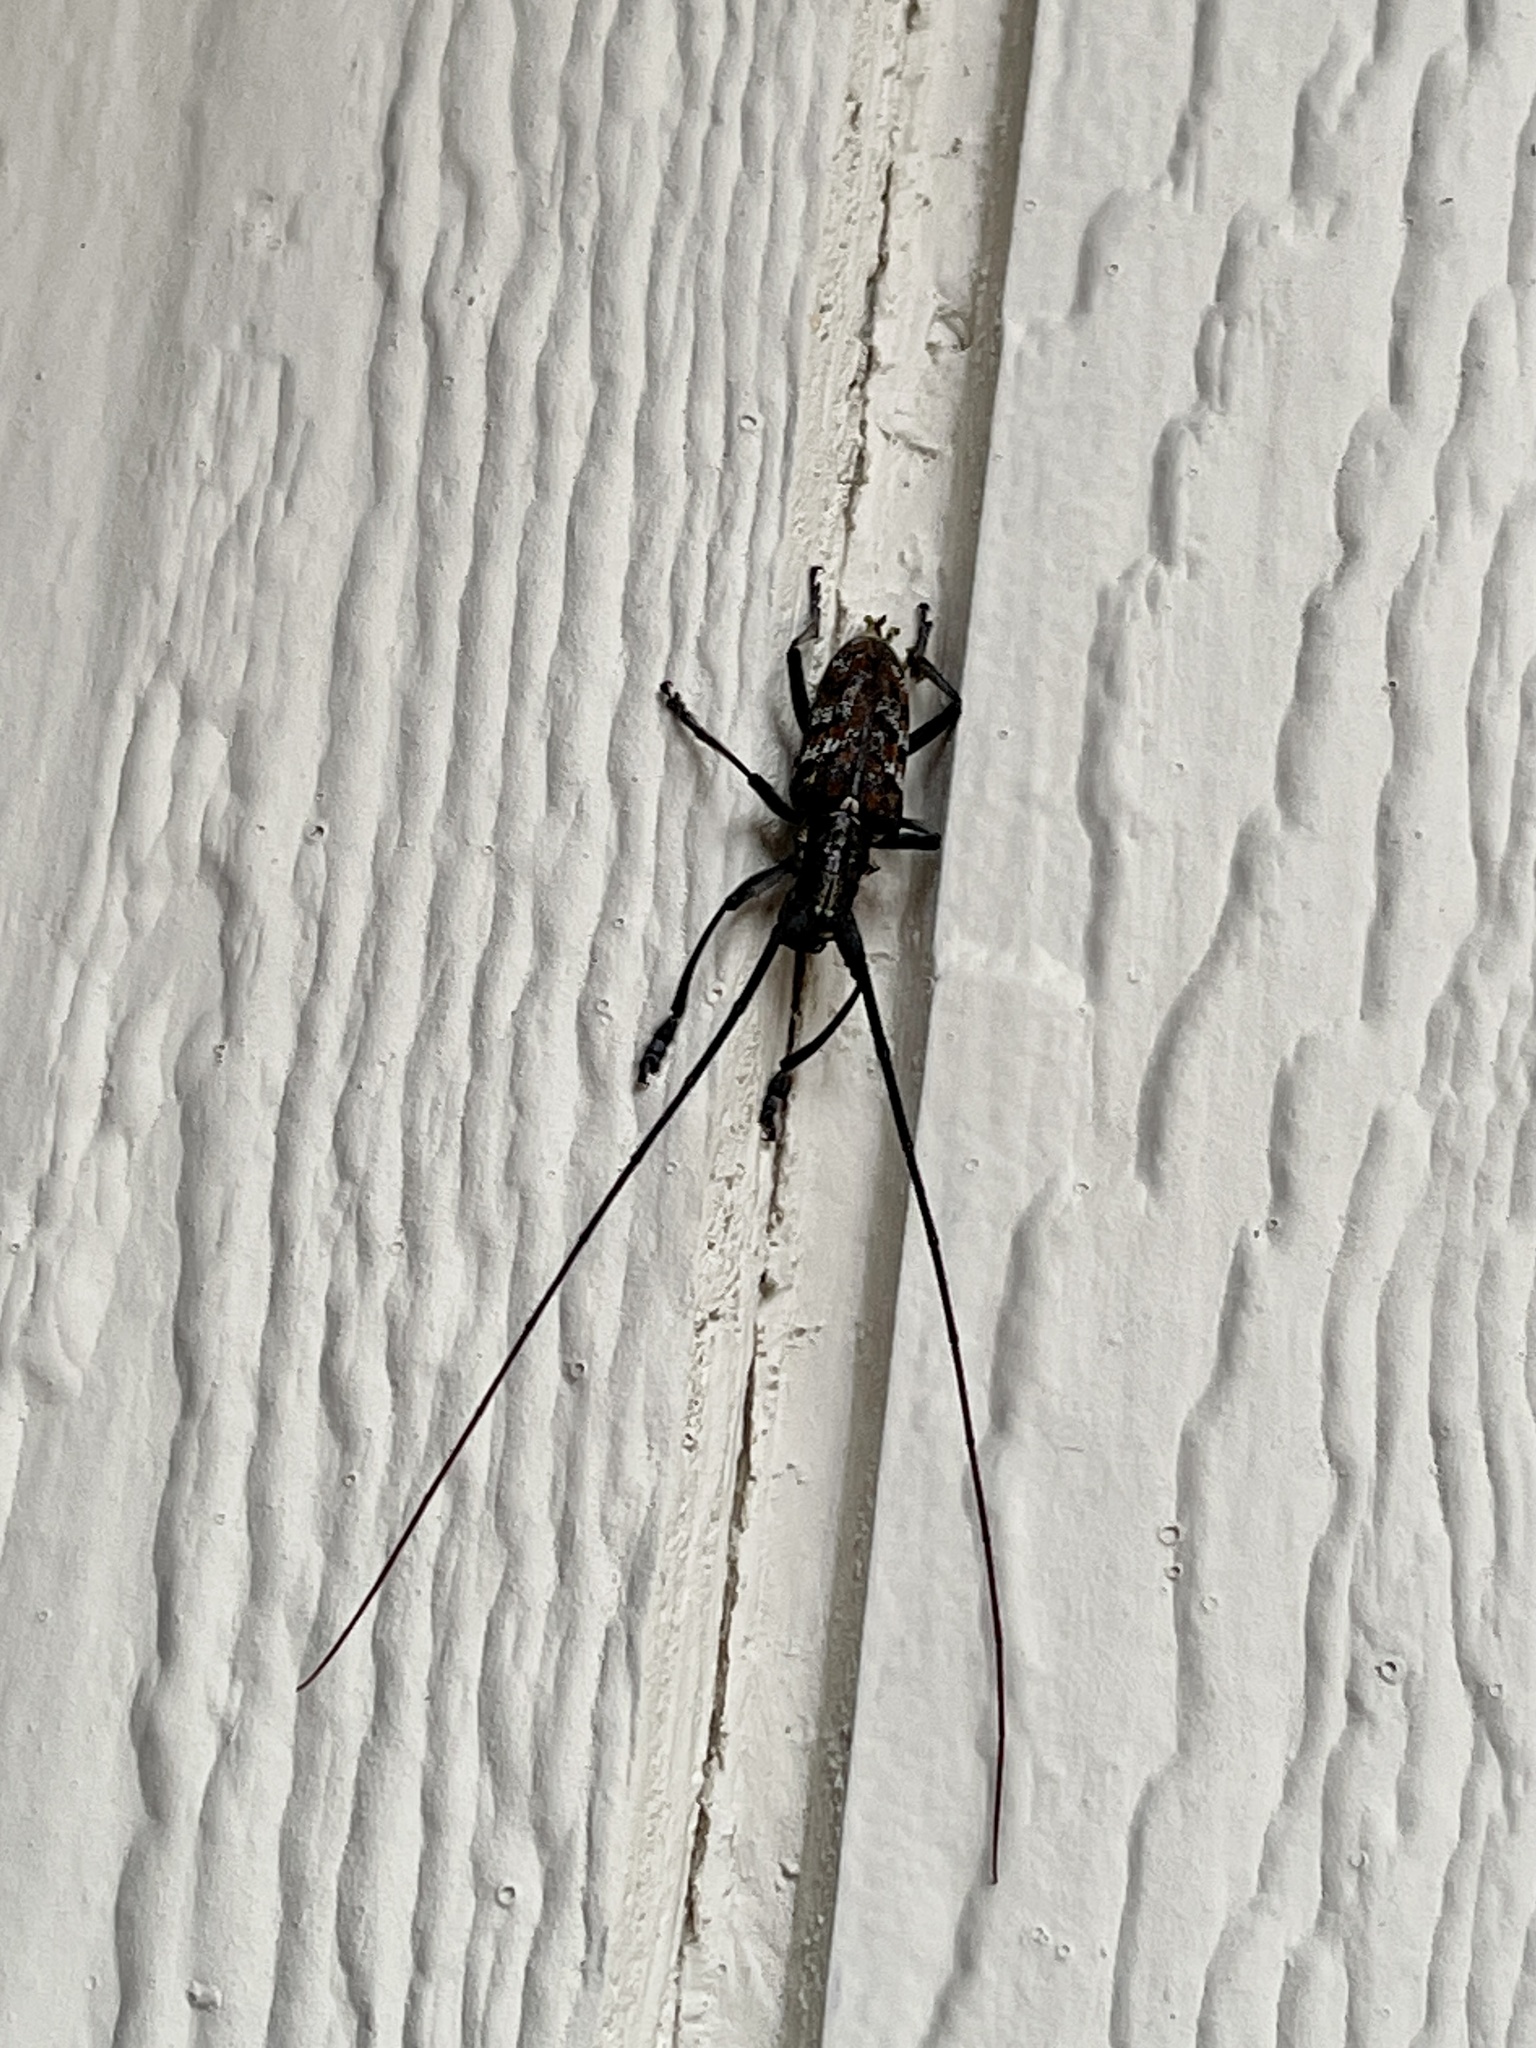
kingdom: Animalia
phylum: Arthropoda
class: Insecta
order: Coleoptera
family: Cerambycidae
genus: Monochamus
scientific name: Monochamus clamator
